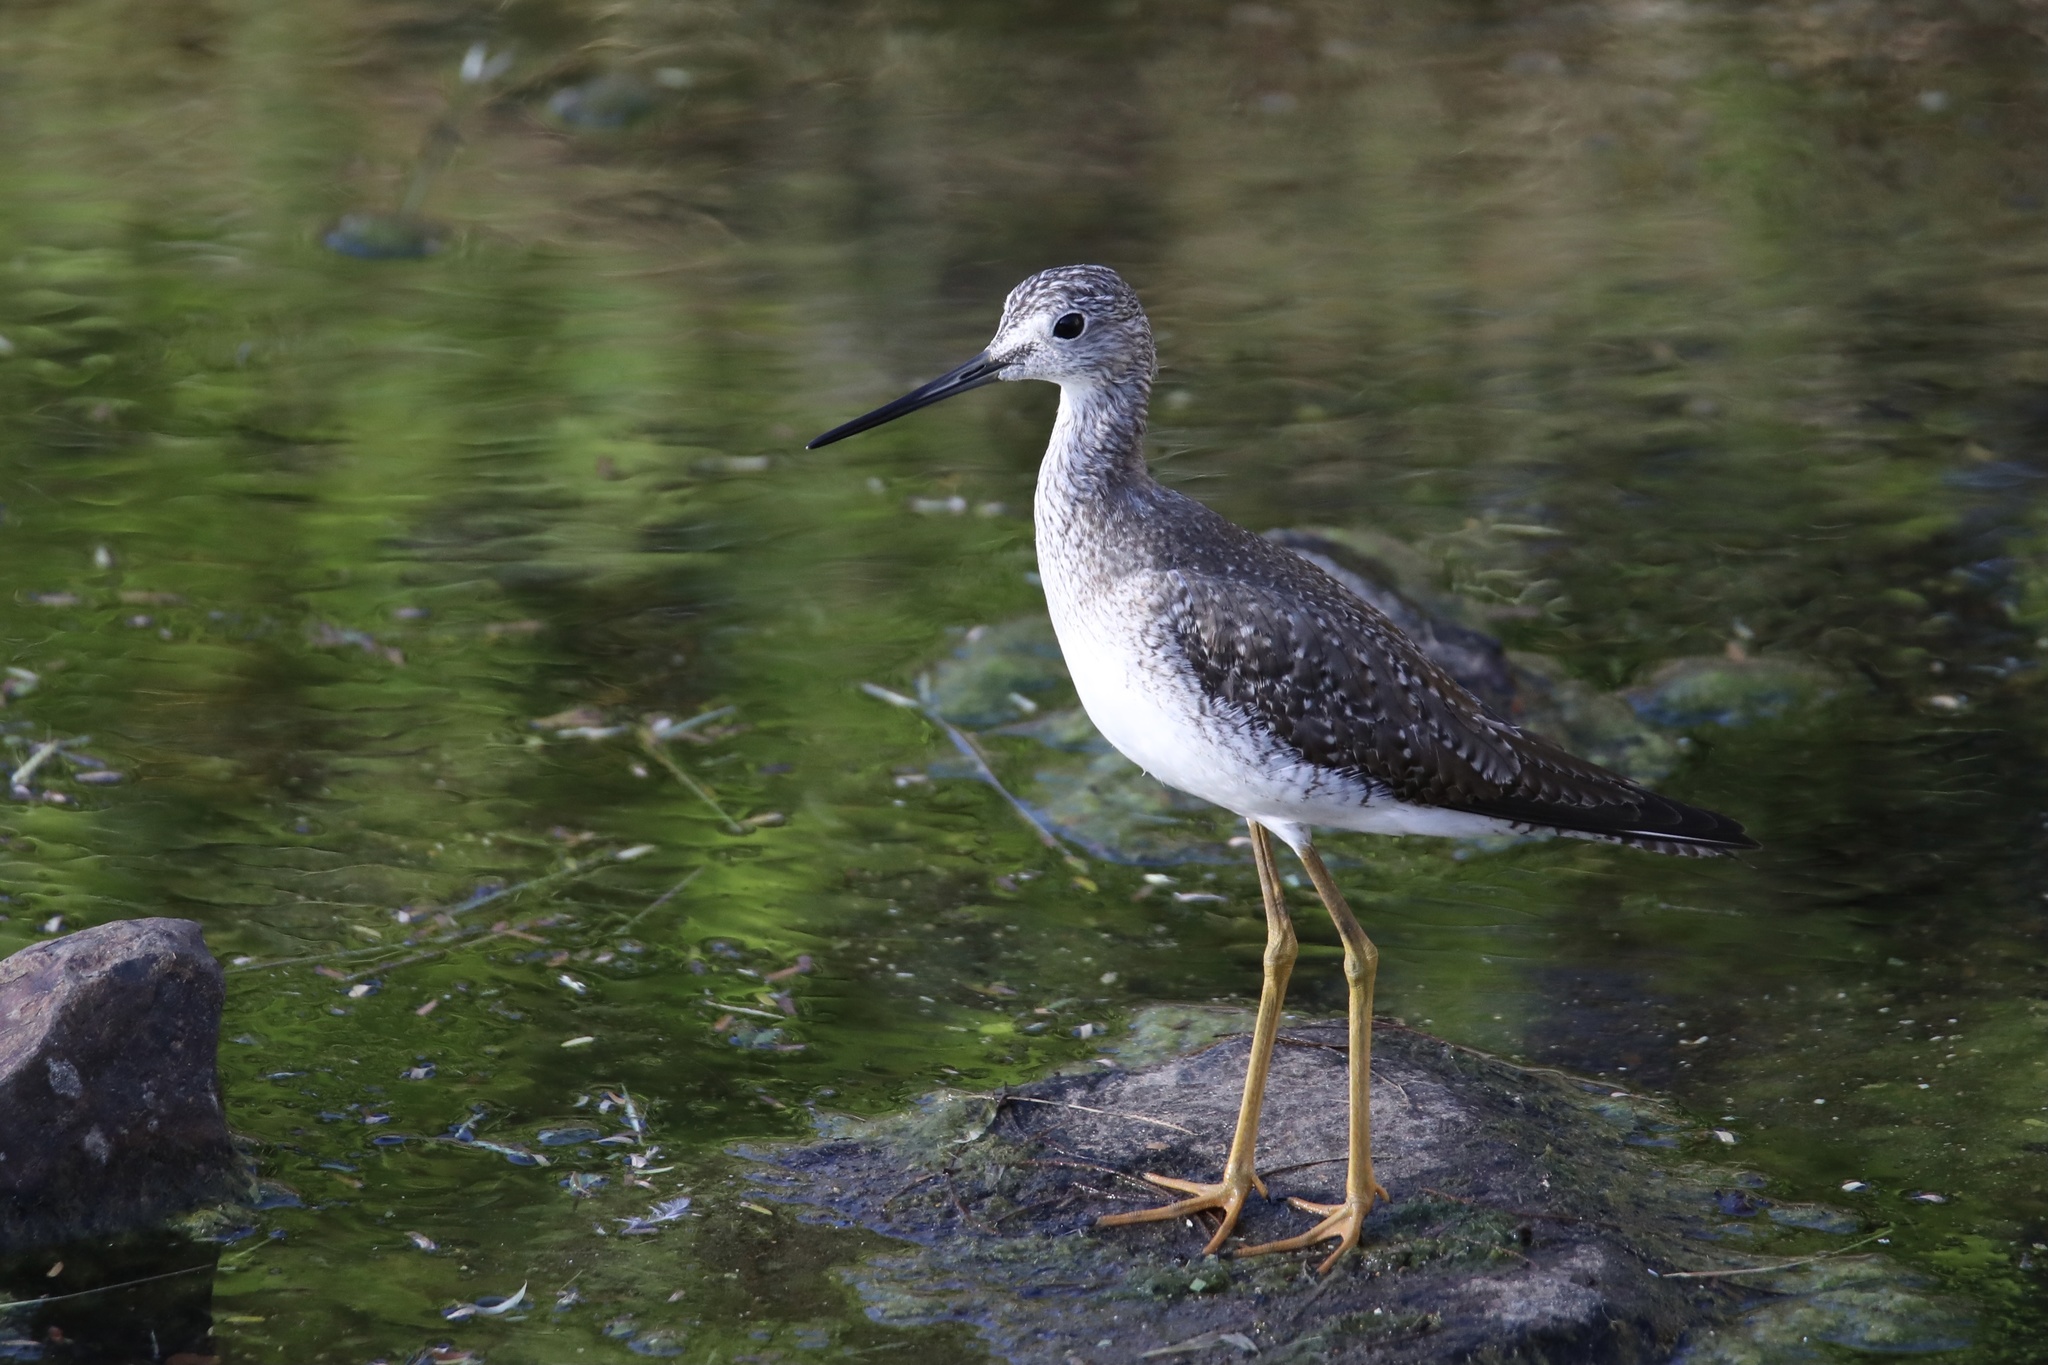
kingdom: Animalia
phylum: Chordata
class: Aves
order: Charadriiformes
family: Scolopacidae
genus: Tringa
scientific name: Tringa melanoleuca
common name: Greater yellowlegs
